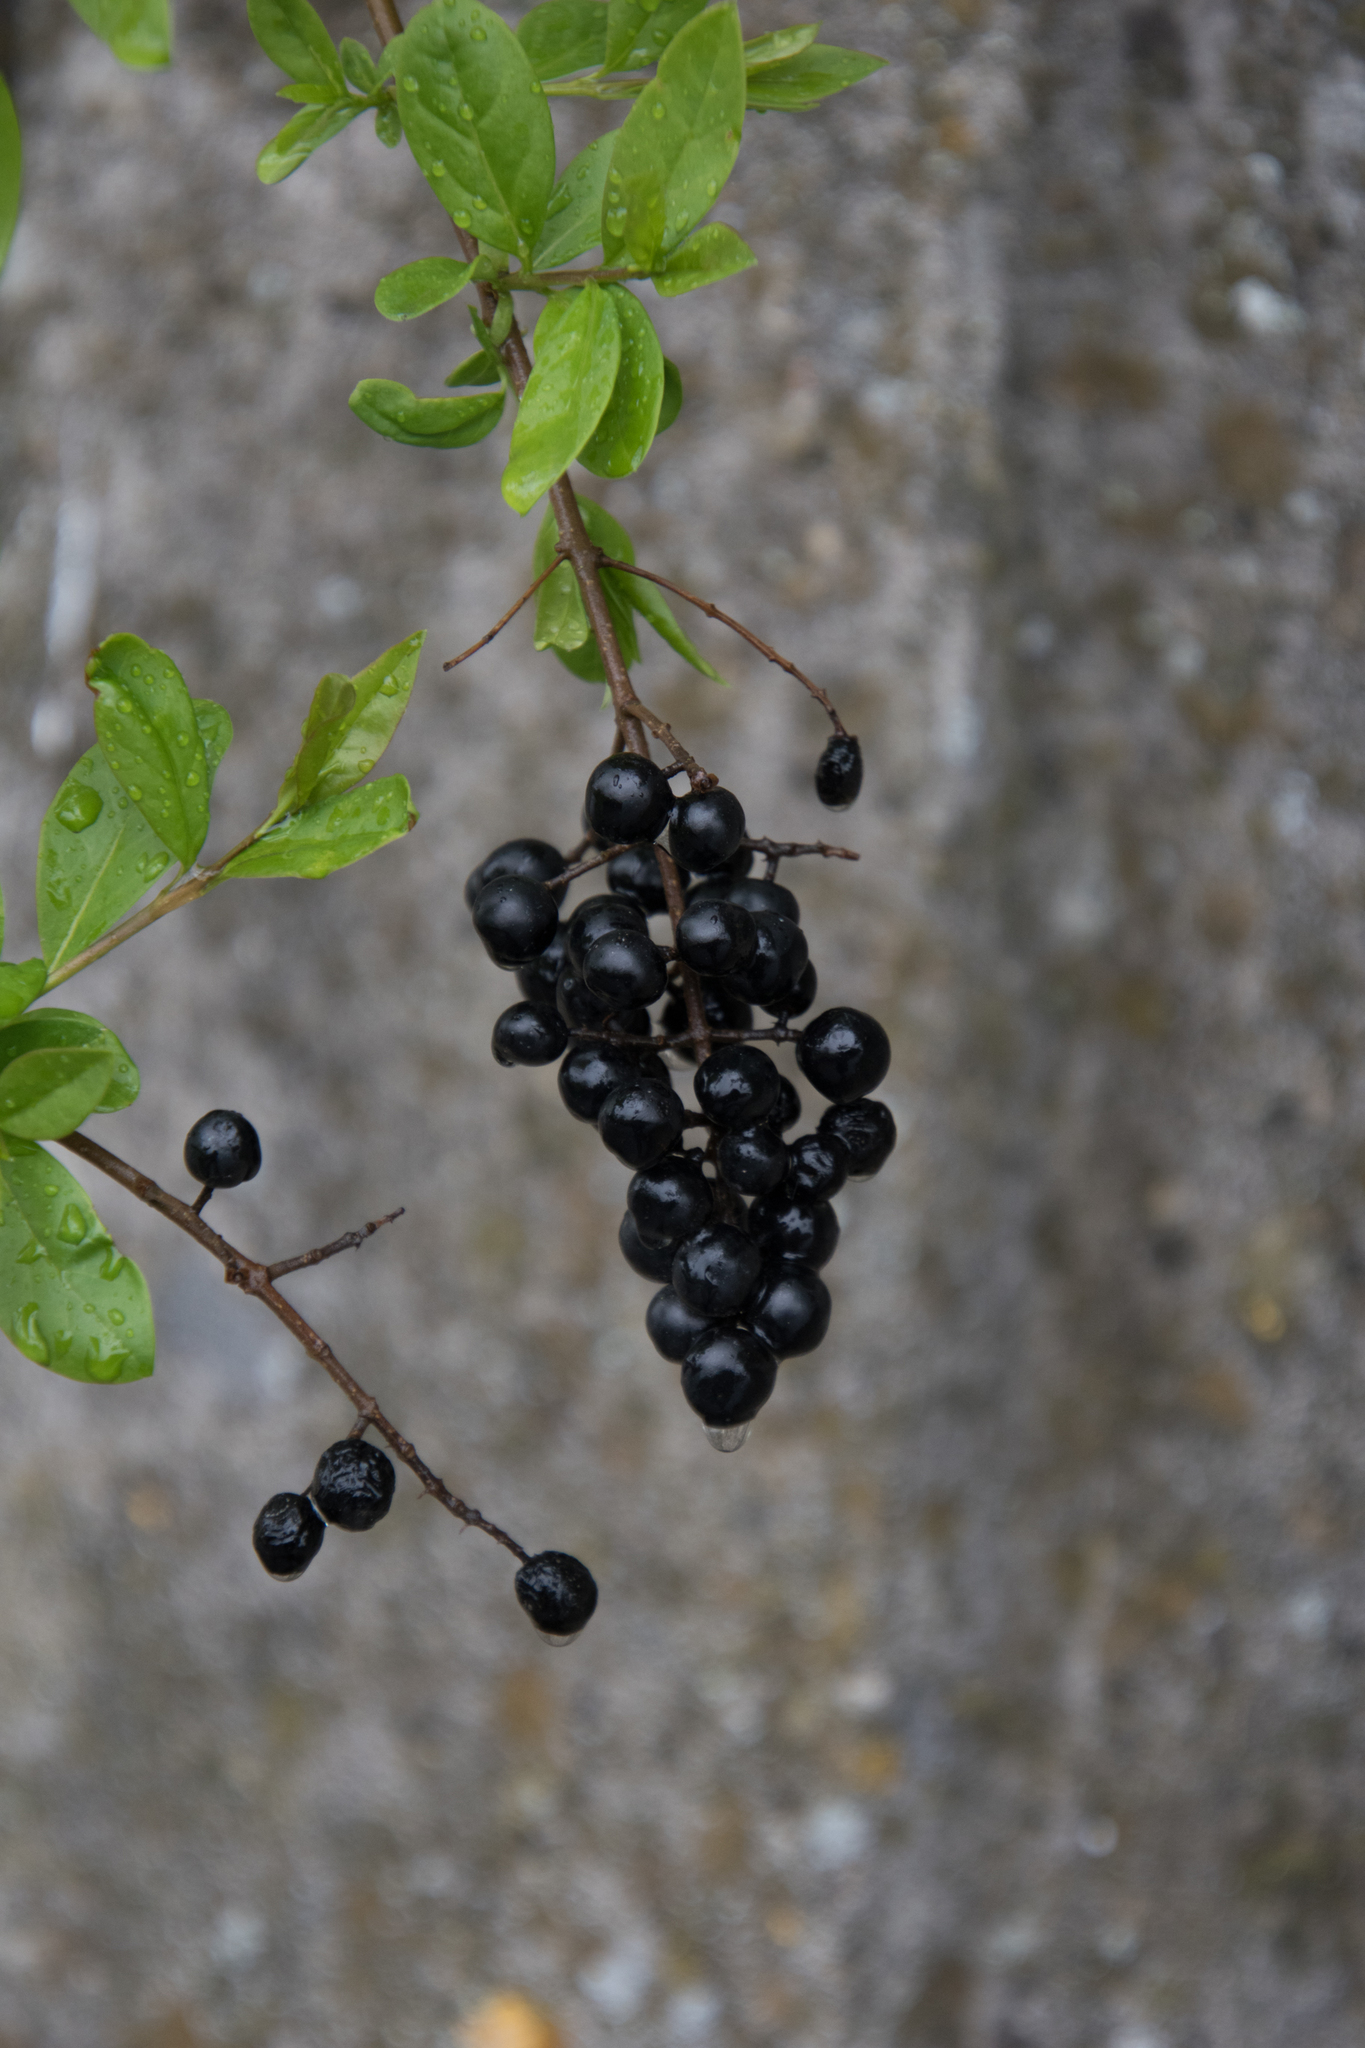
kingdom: Plantae
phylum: Tracheophyta
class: Magnoliopsida
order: Lamiales
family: Oleaceae
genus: Ligustrum
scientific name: Ligustrum vulgare
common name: Wild privet
